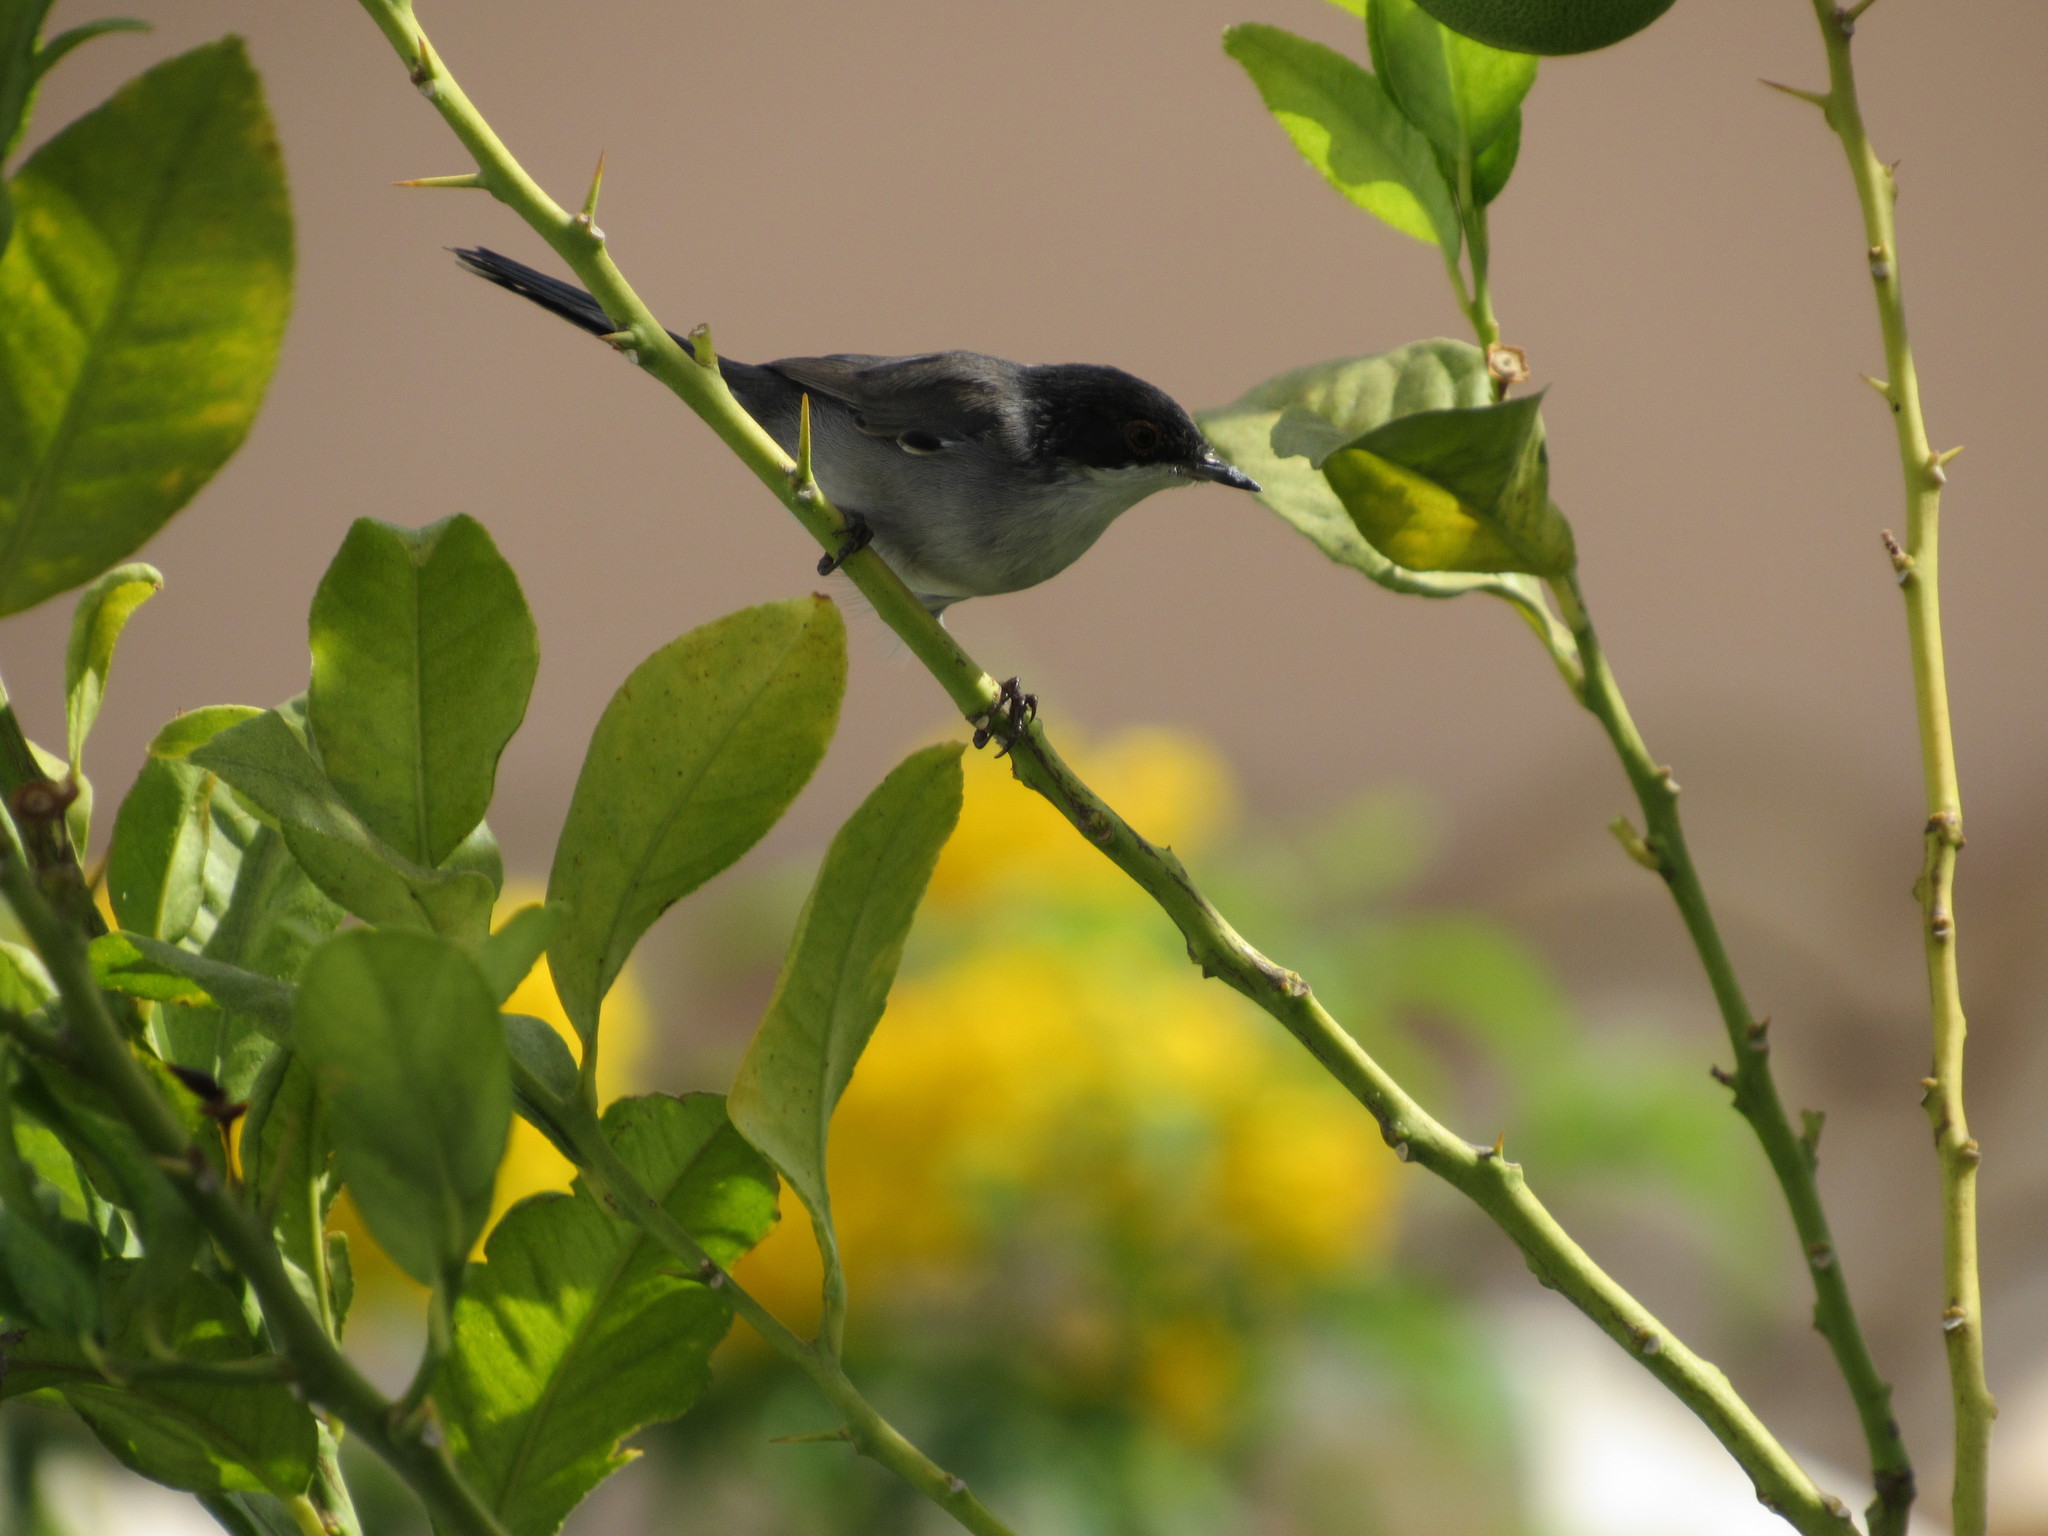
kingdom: Animalia
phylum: Chordata
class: Aves
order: Passeriformes
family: Sylviidae
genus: Curruca
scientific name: Curruca melanocephala
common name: Sardinian warbler
